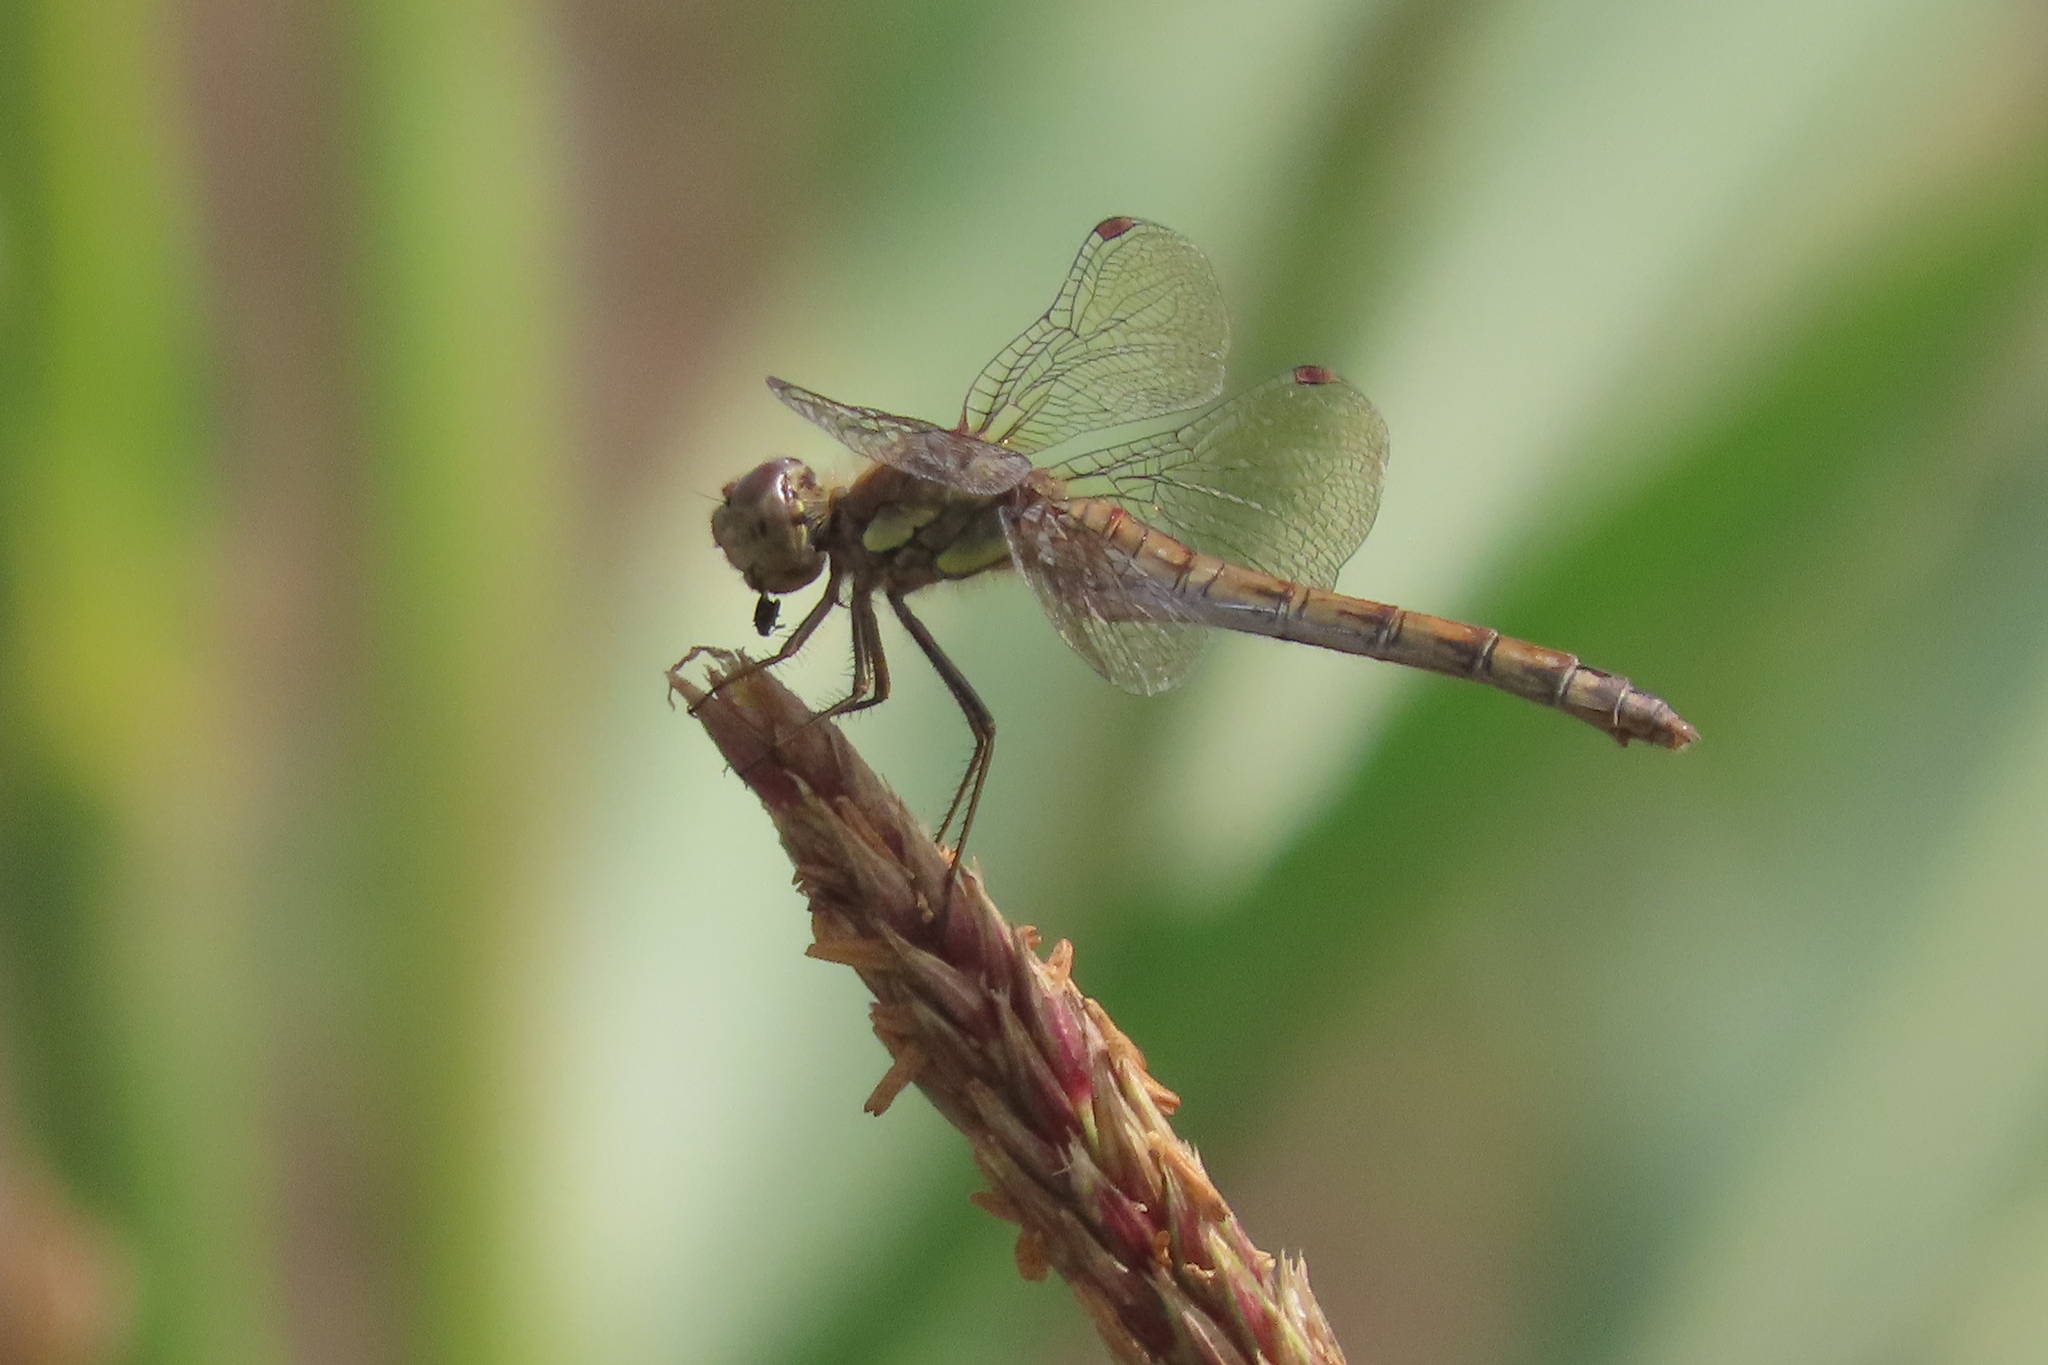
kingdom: Animalia
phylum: Arthropoda
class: Insecta
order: Odonata
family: Libellulidae
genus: Sympetrum
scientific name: Sympetrum striolatum
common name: Common darter
